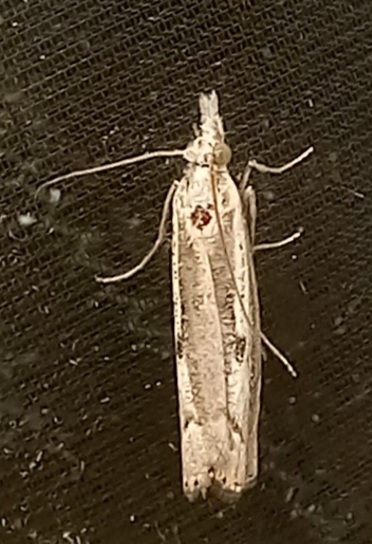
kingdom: Animalia
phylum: Arthropoda
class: Insecta
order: Lepidoptera
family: Crambidae
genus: Agriphila
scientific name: Agriphila geniculea
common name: Elbow-stripe grass-veneer
